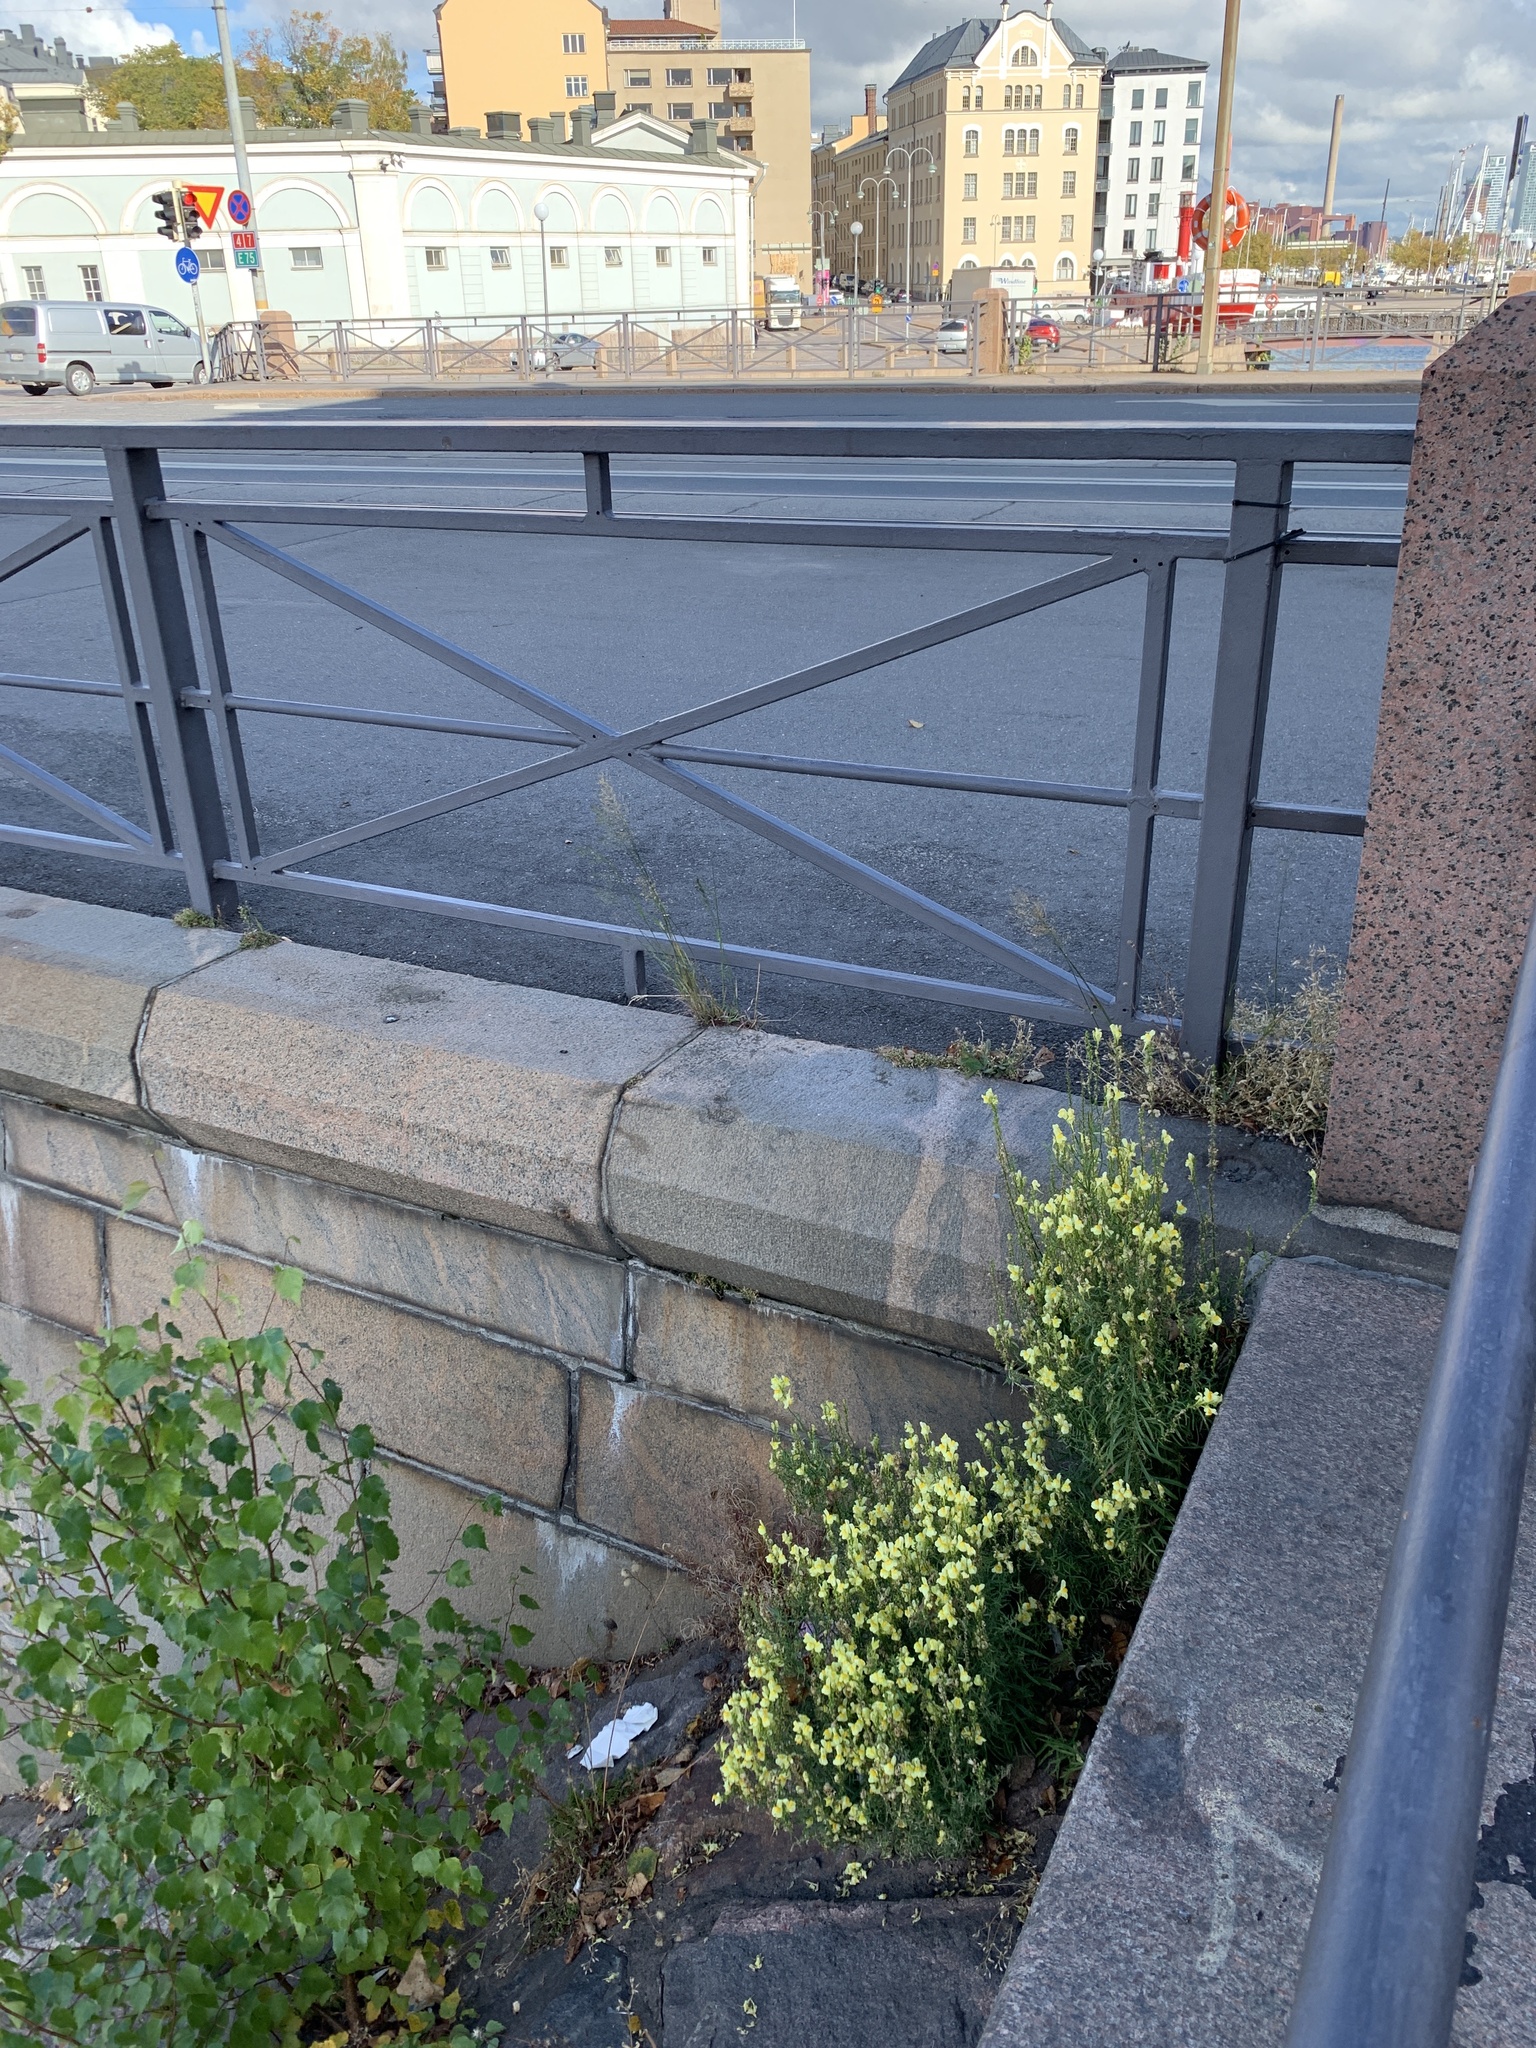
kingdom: Plantae
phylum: Tracheophyta
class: Magnoliopsida
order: Lamiales
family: Plantaginaceae
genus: Linaria
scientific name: Linaria vulgaris
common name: Butter and eggs
